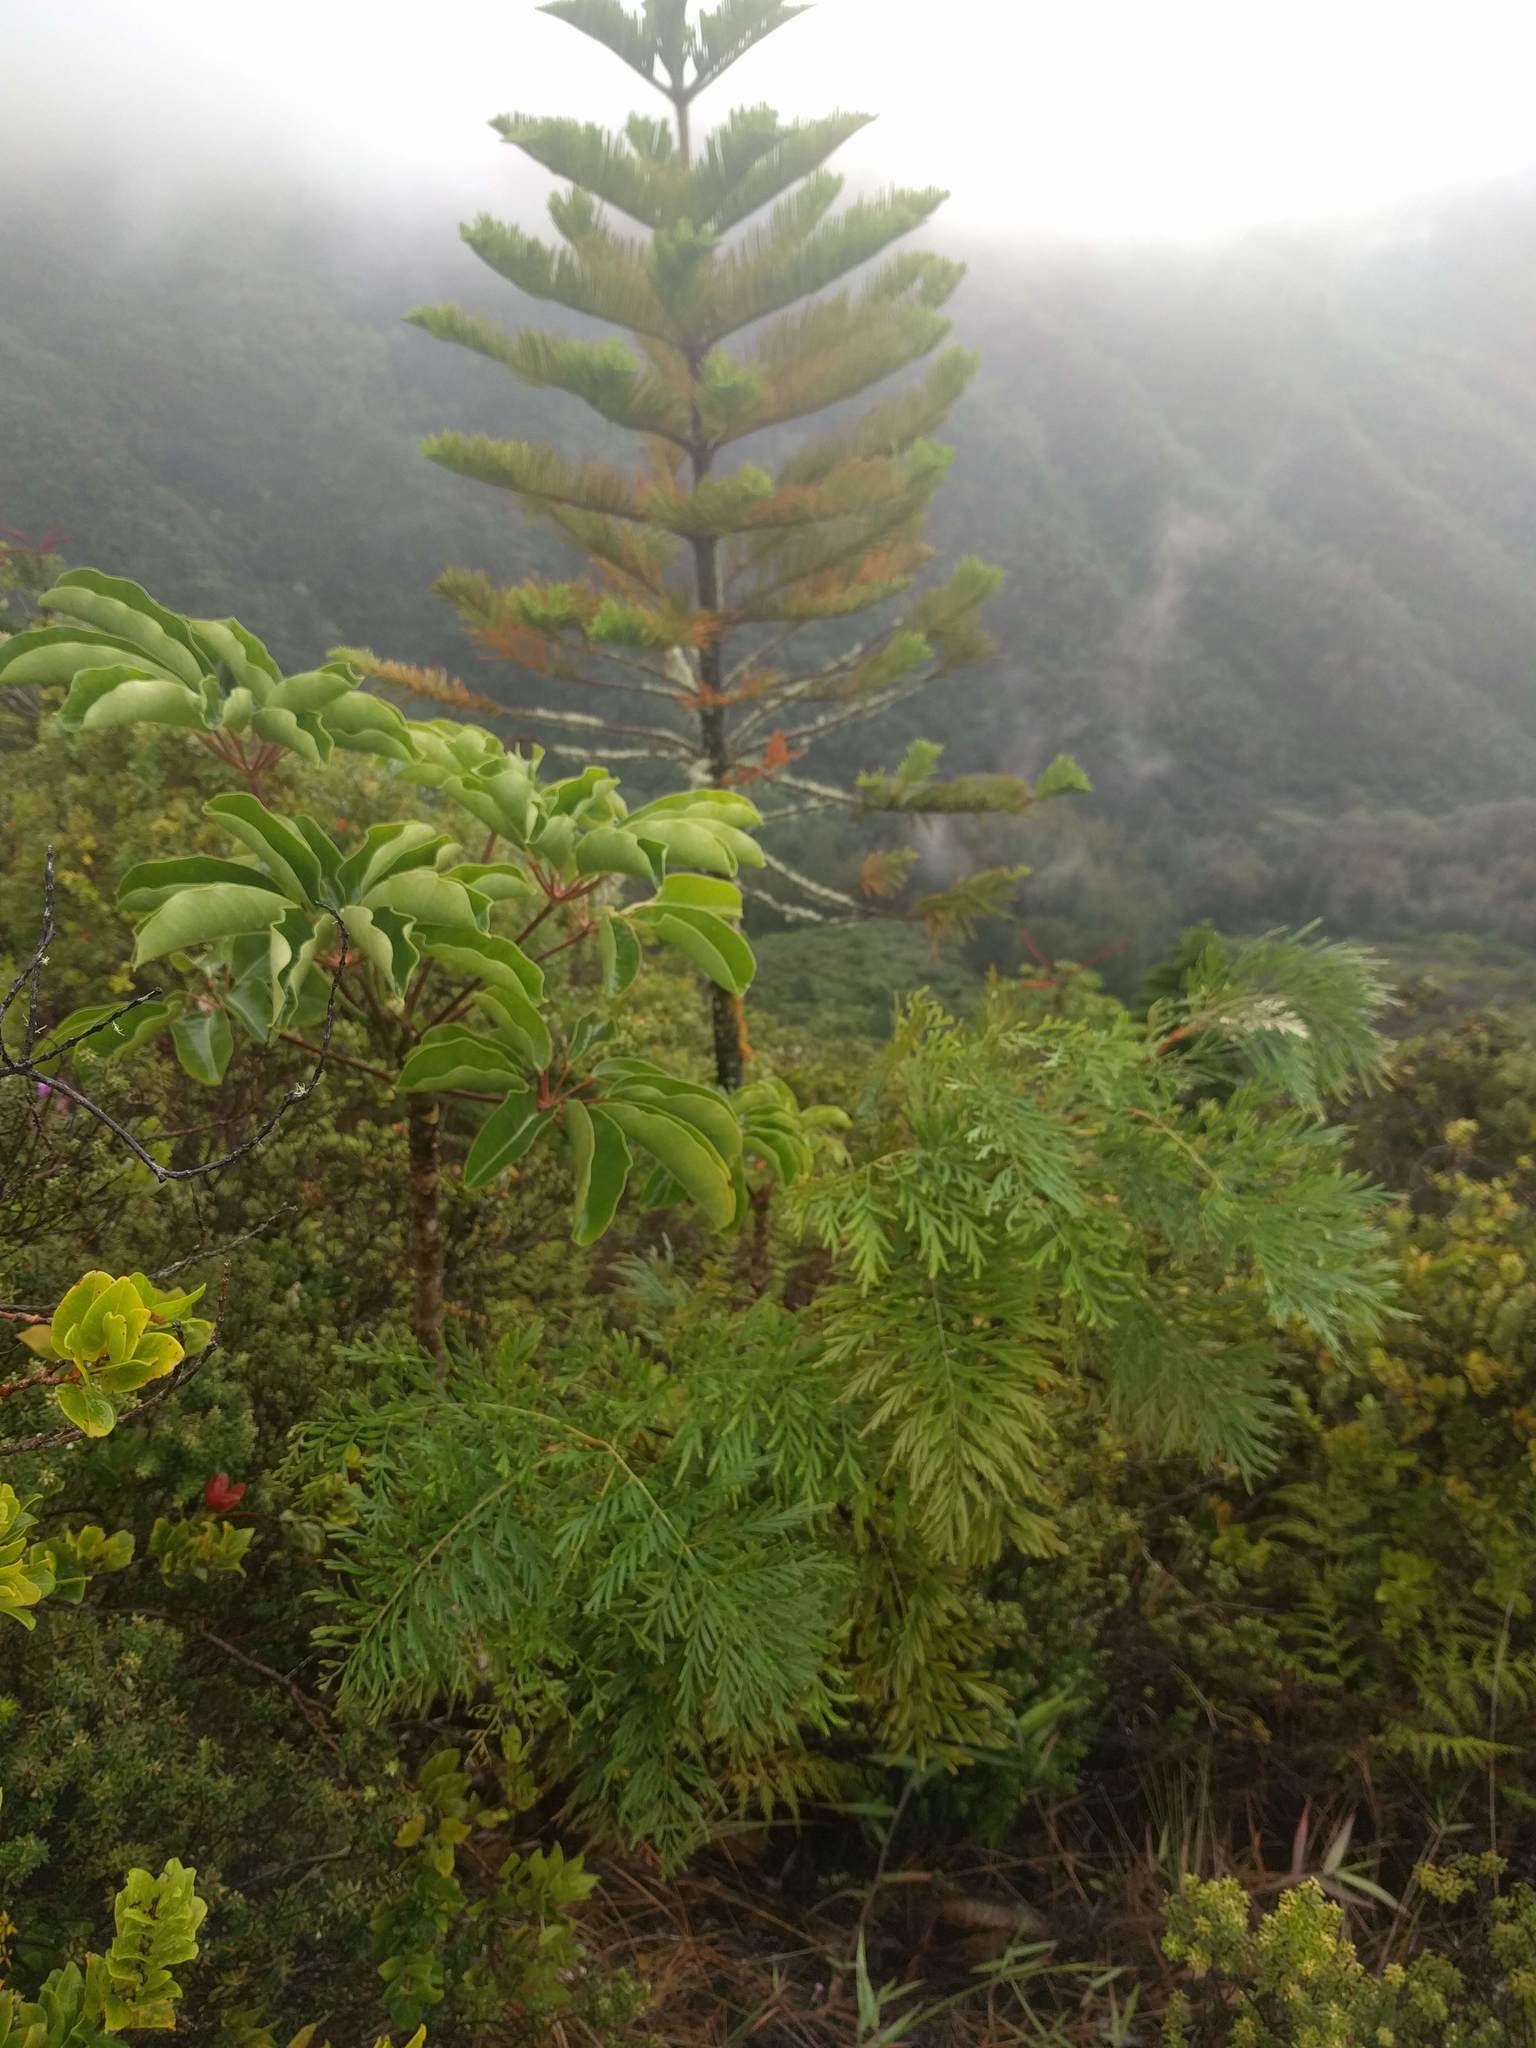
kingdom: Plantae
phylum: Tracheophyta
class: Magnoliopsida
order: Apiales
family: Araliaceae
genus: Heptapleurum
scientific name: Heptapleurum actinophyllum
